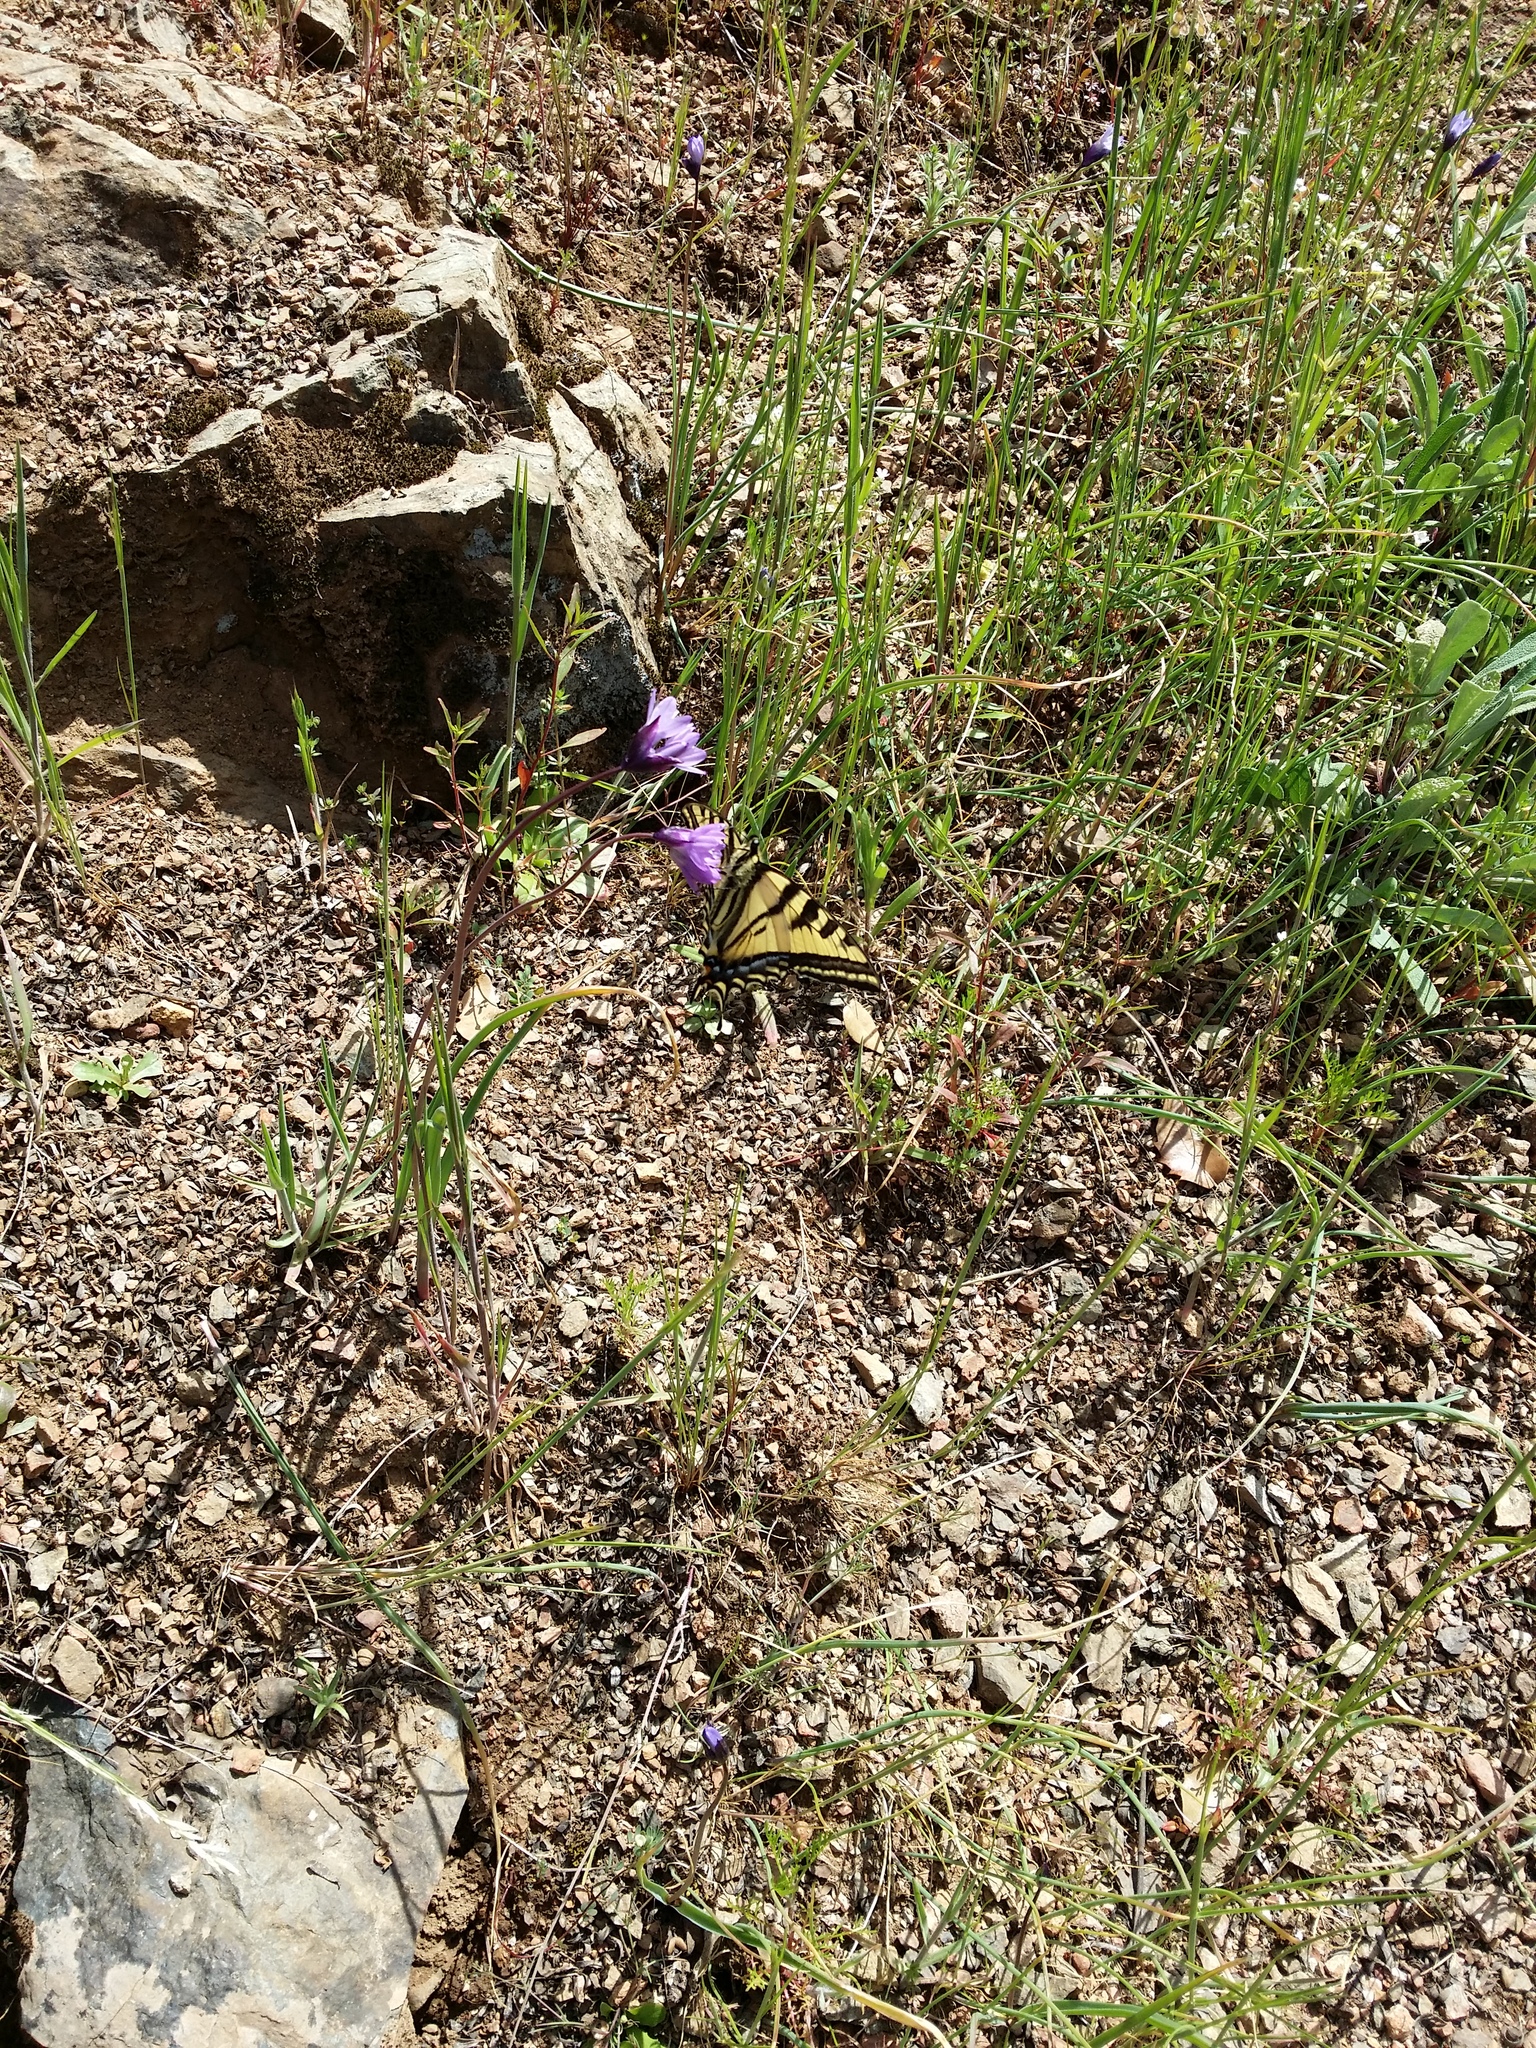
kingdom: Animalia
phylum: Arthropoda
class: Insecta
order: Lepidoptera
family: Papilionidae
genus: Papilio
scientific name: Papilio multicaudata
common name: Two-tailed tiger swallowtail
